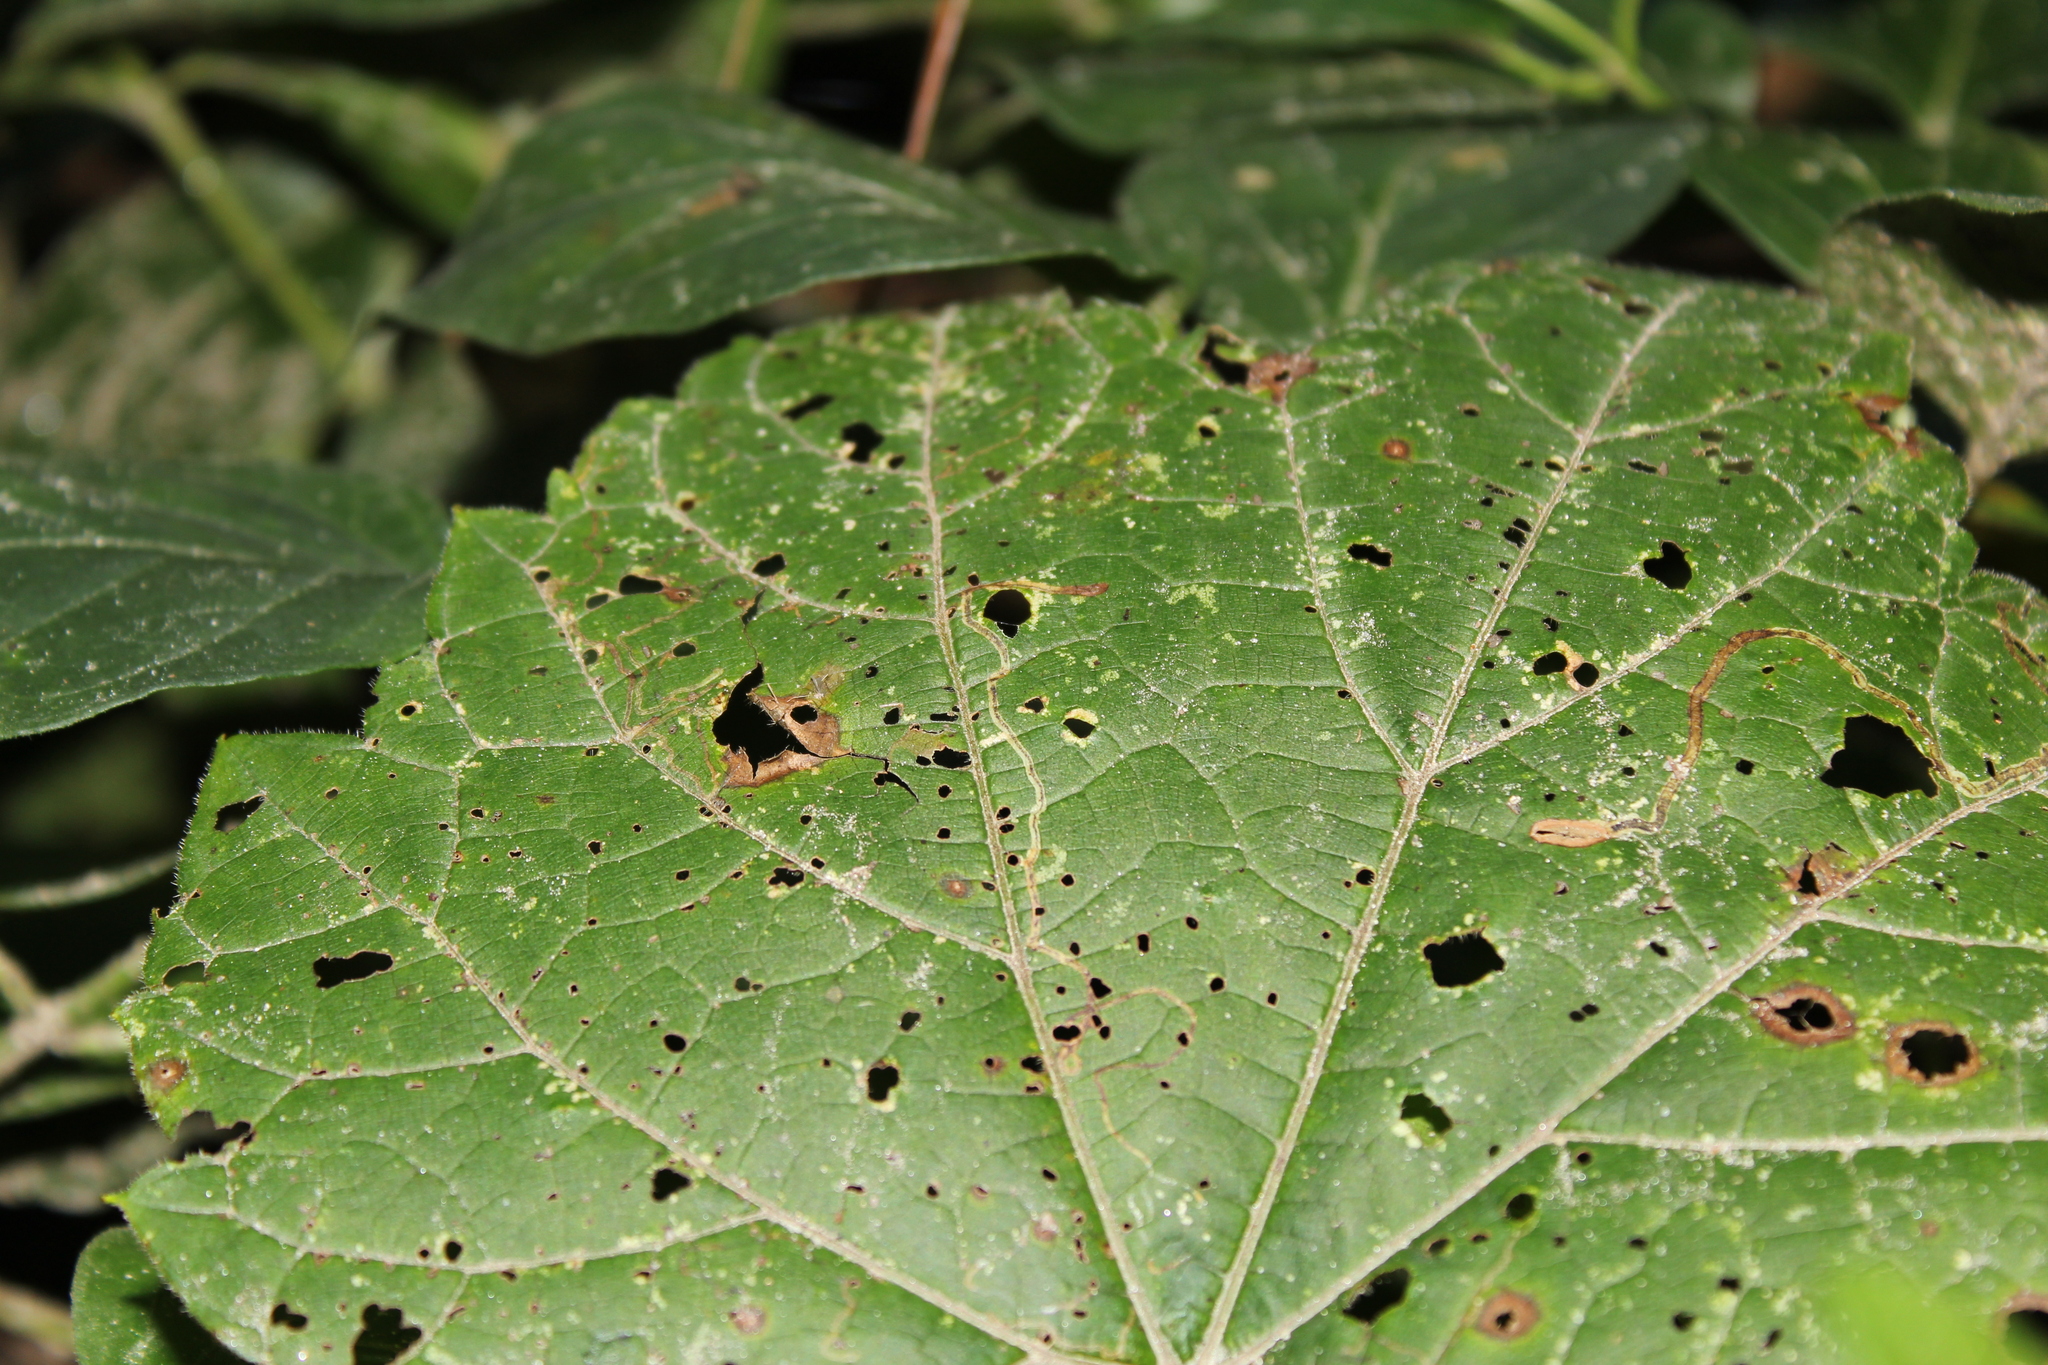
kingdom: Animalia
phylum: Arthropoda
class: Insecta
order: Lepidoptera
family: Gracillariidae
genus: Phyllocnistis
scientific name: Phyllocnistis vitifoliella
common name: Grape leaf-miner moth
